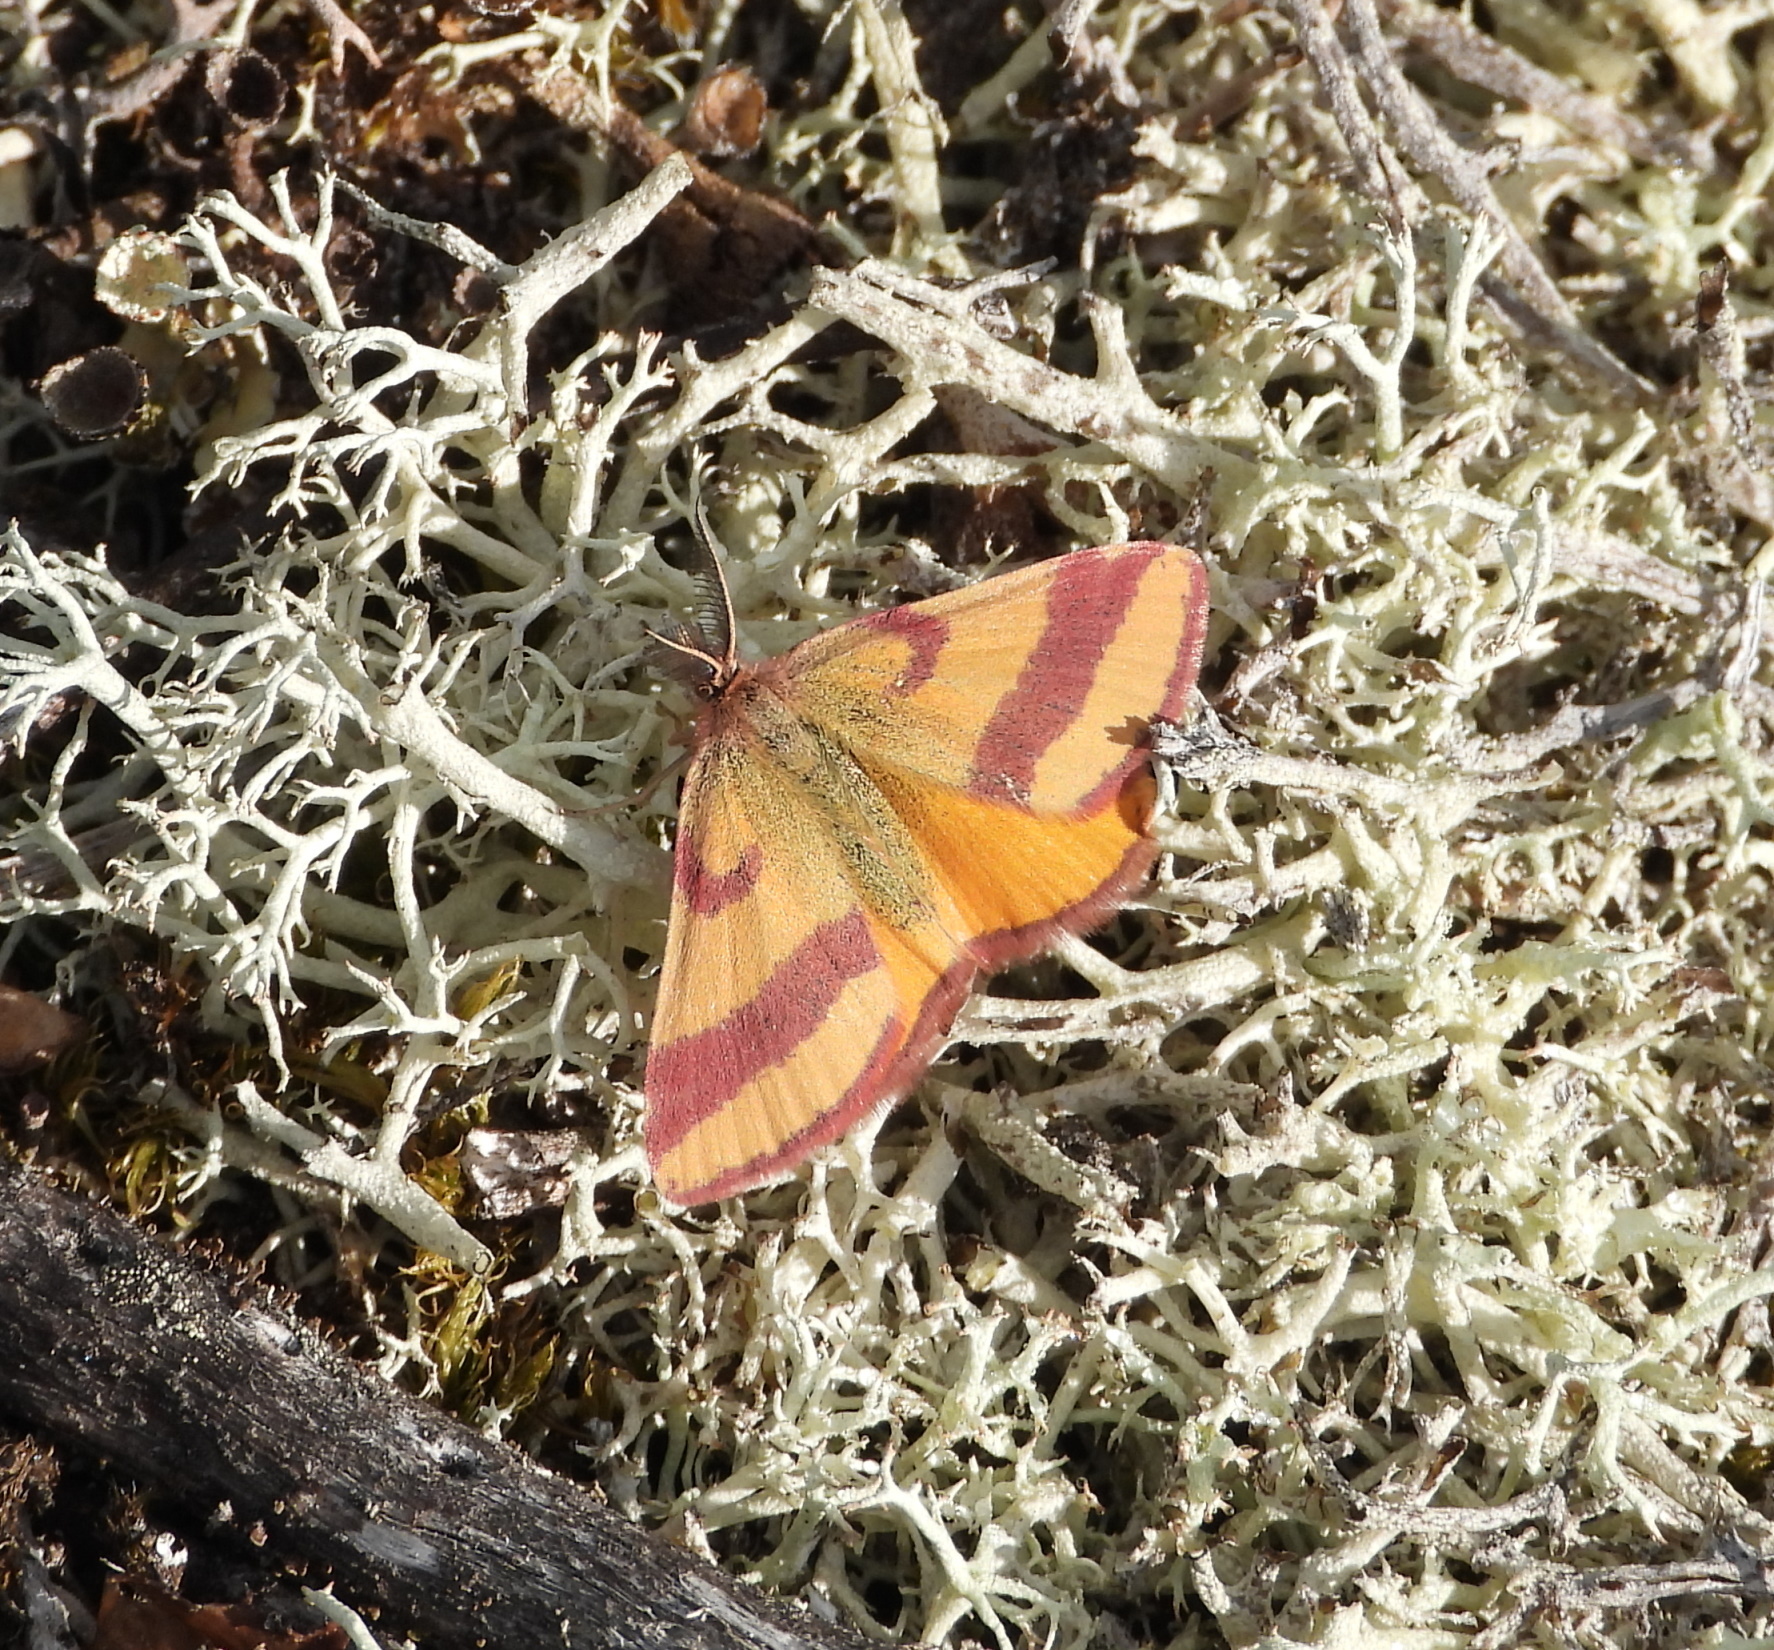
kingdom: Animalia
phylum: Arthropoda
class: Insecta
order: Lepidoptera
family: Geometridae
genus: Lythria
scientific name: Lythria cruentaria
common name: Purple-barred yellow
